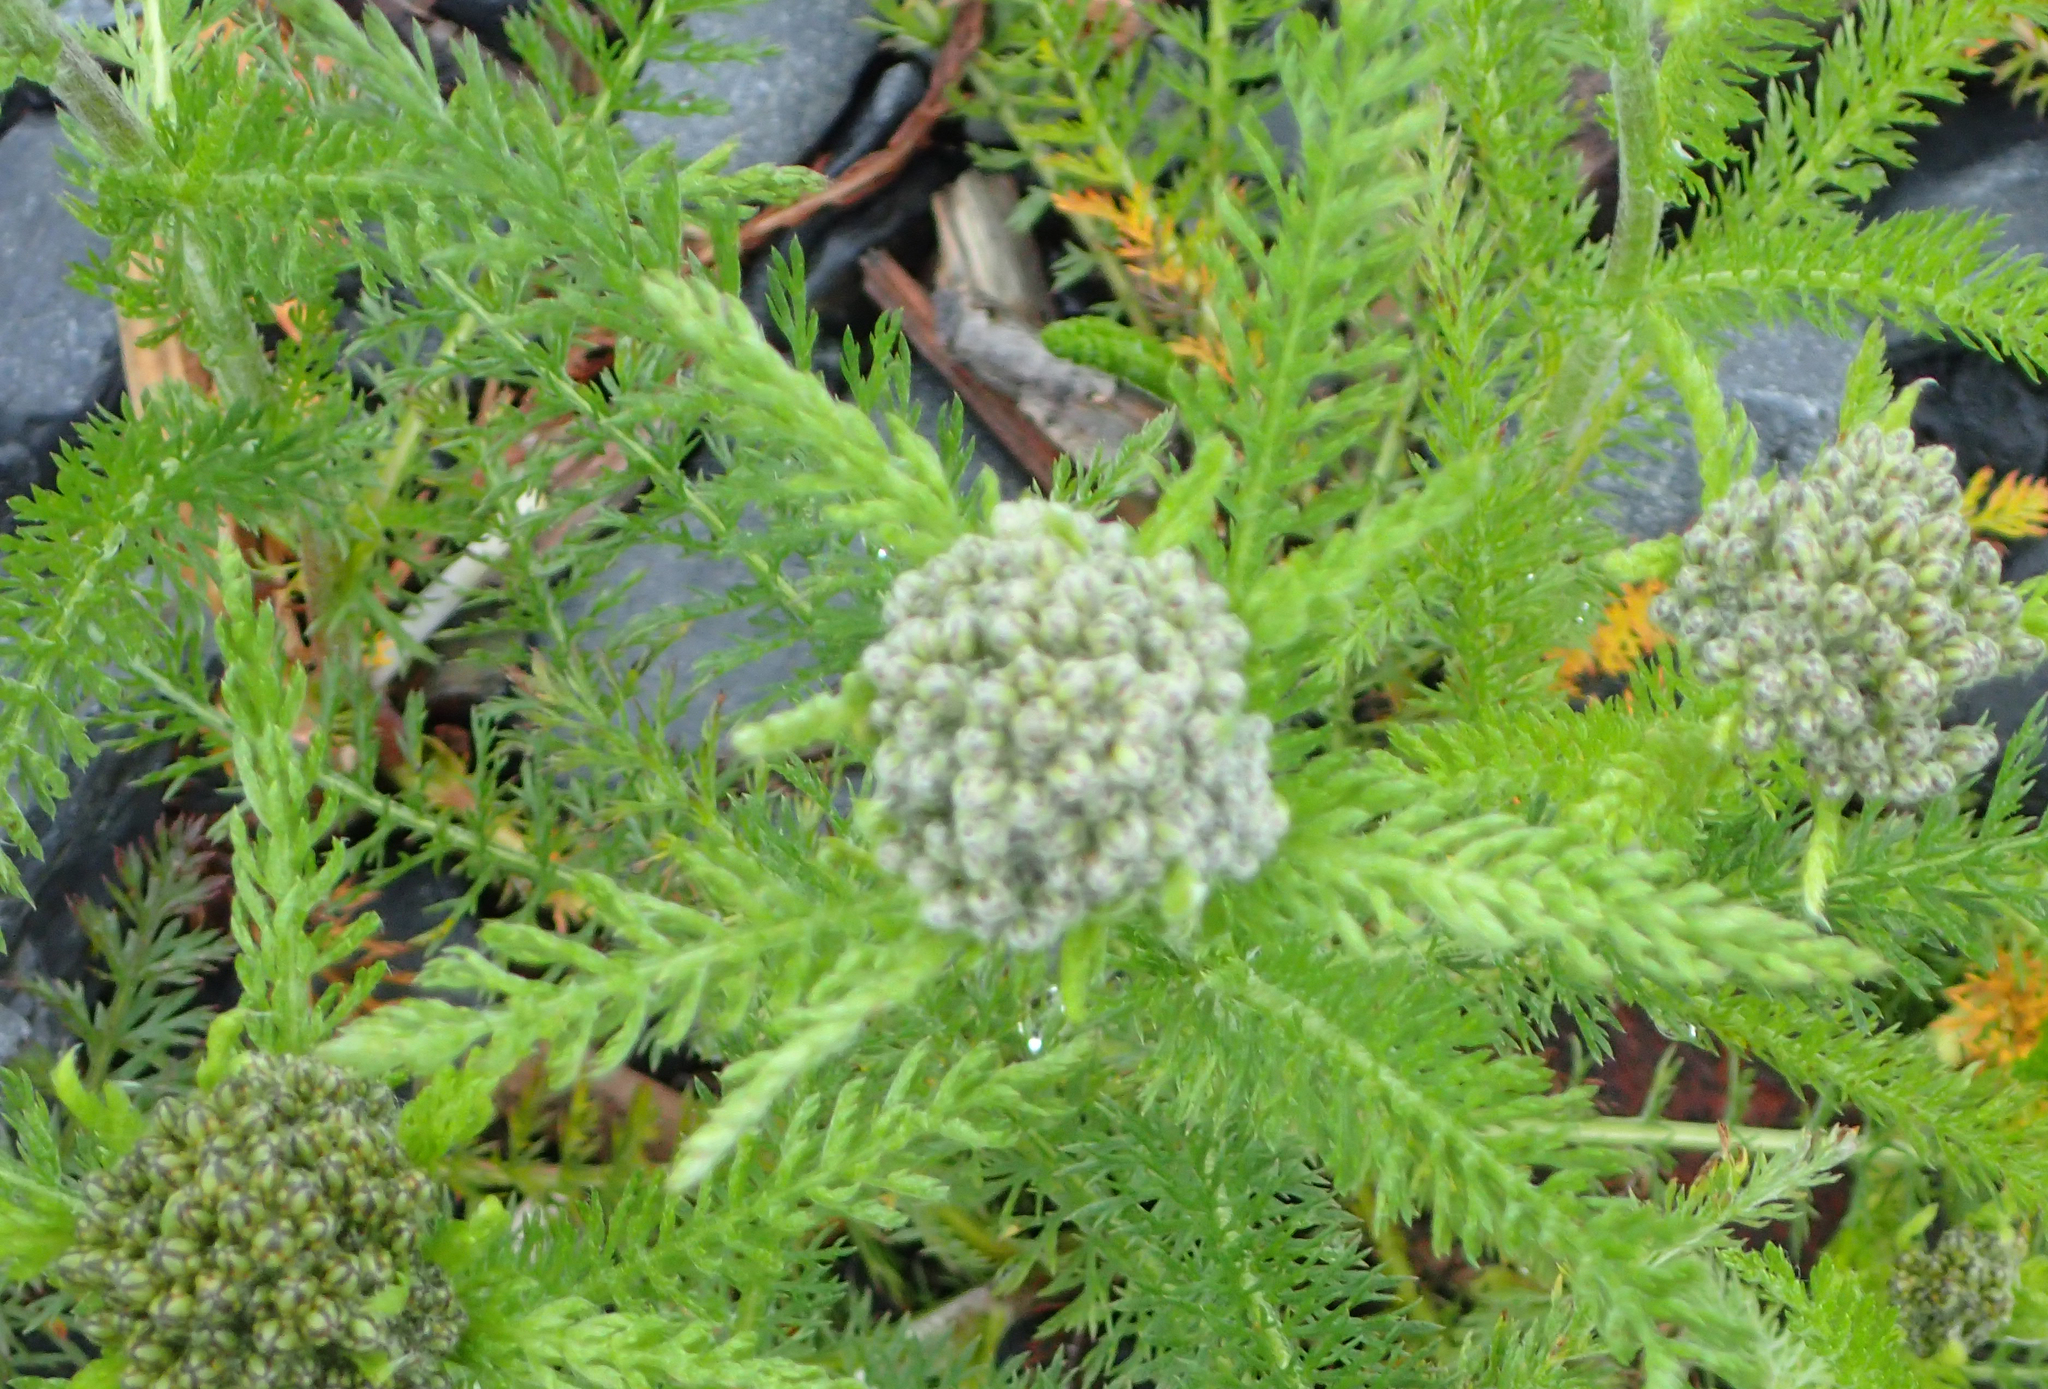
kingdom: Plantae
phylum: Tracheophyta
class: Magnoliopsida
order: Asterales
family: Asteraceae
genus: Achillea
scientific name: Achillea millefolium
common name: Yarrow
